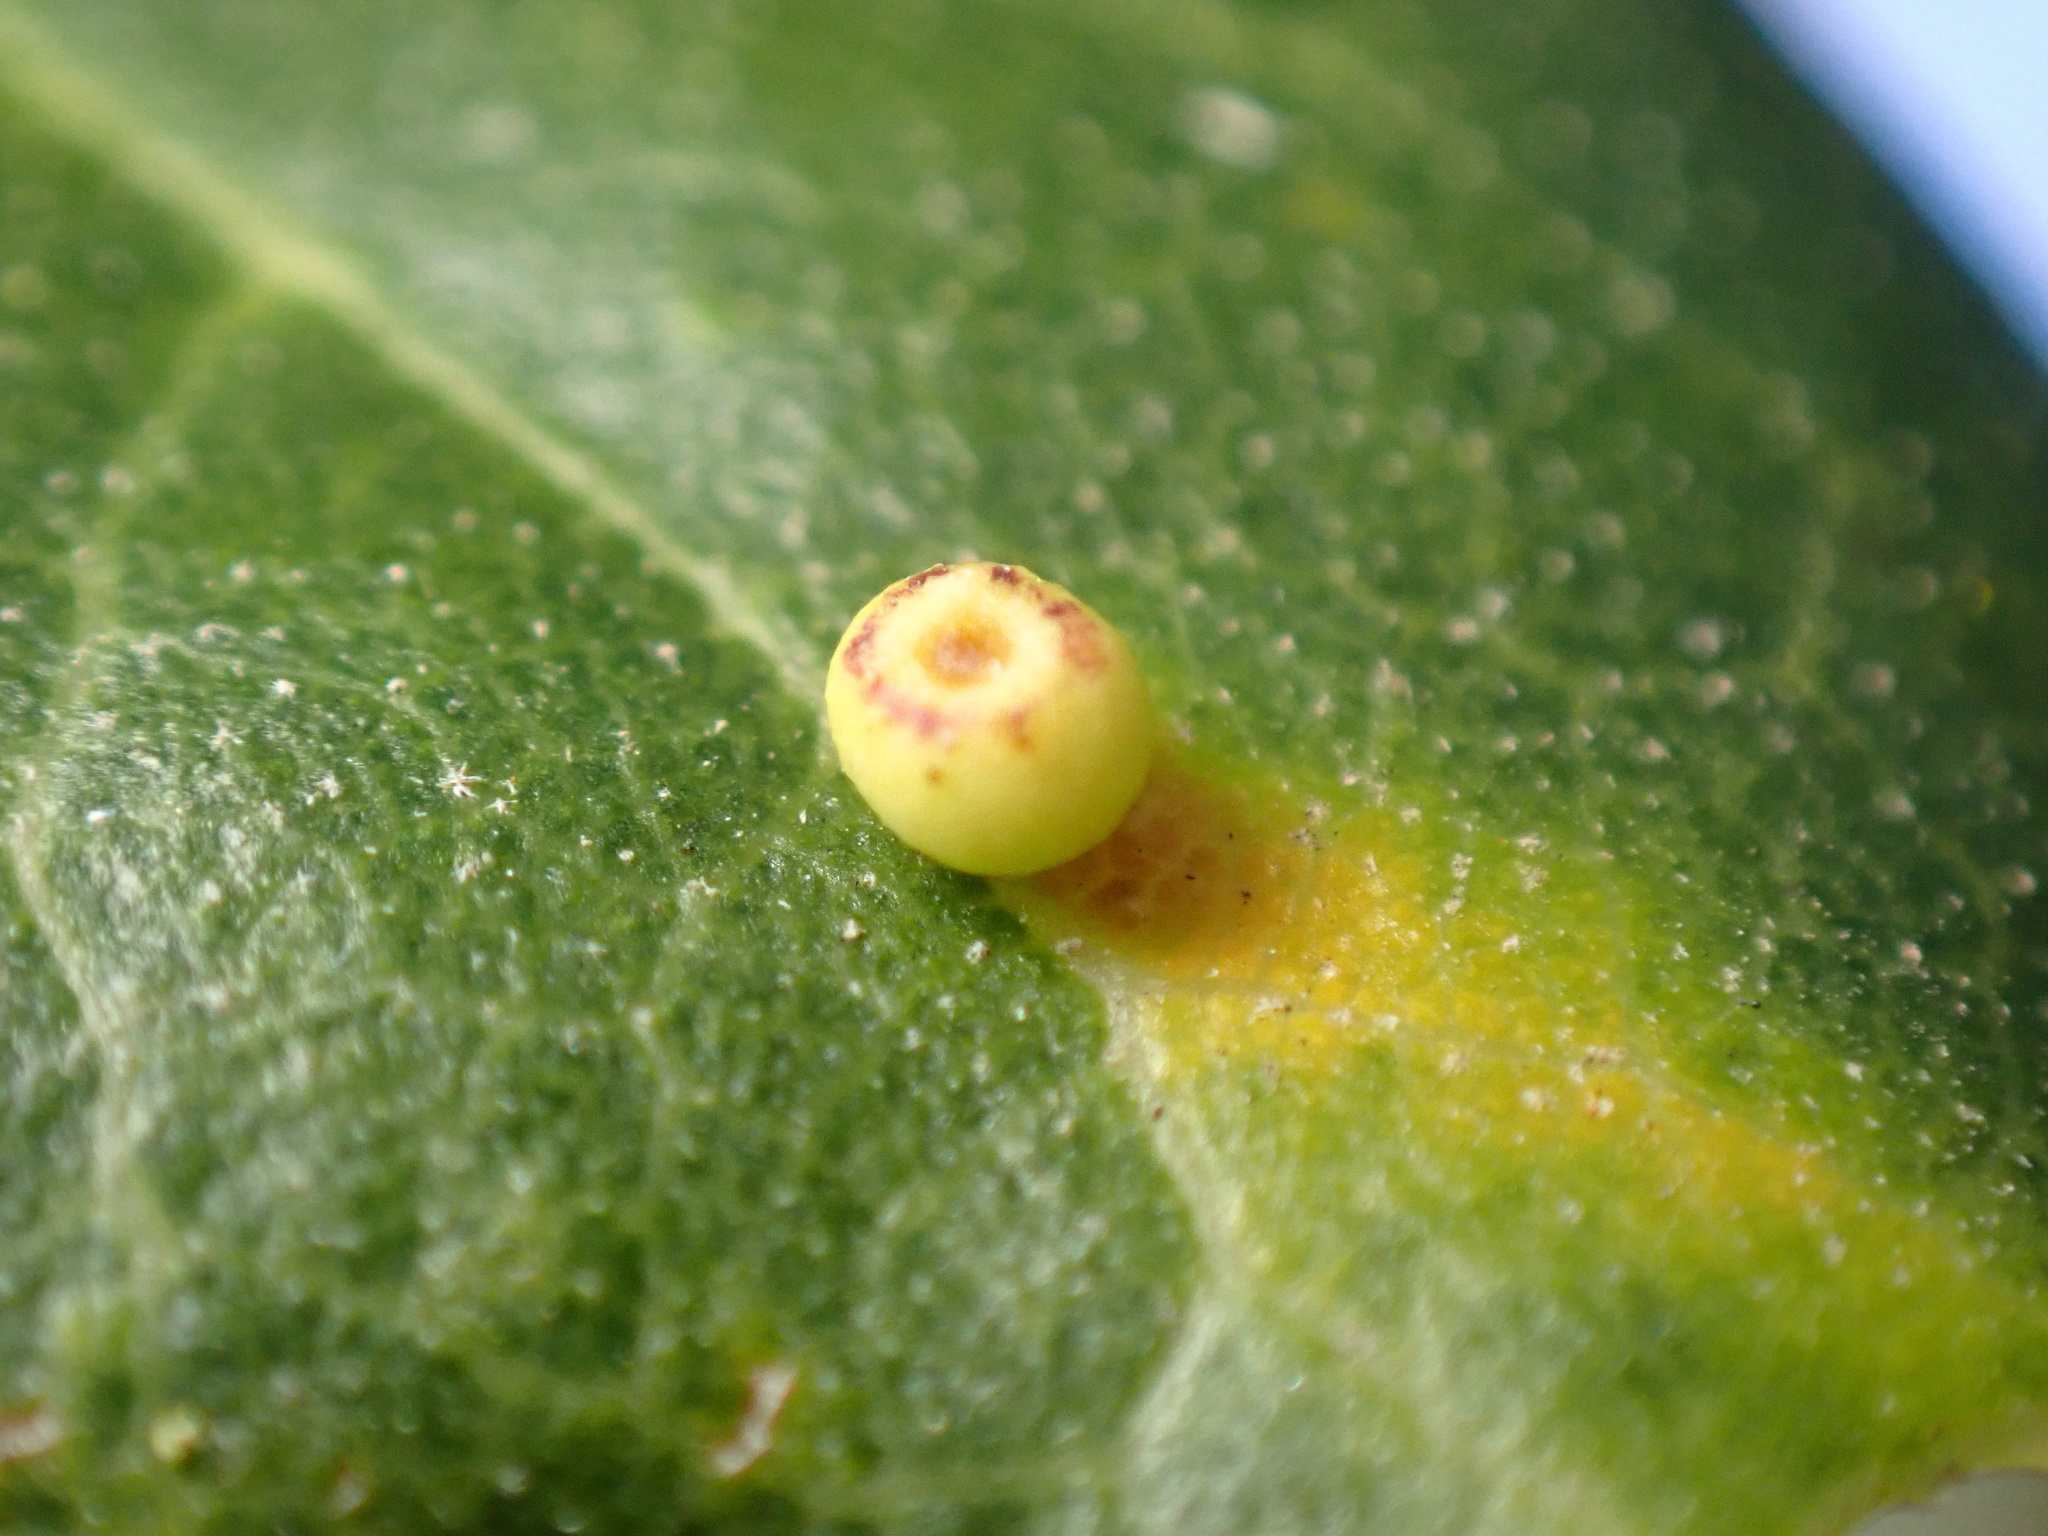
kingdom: Animalia
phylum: Arthropoda
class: Insecta
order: Hymenoptera
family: Cynipidae
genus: Dryocosmus
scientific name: Dryocosmus
